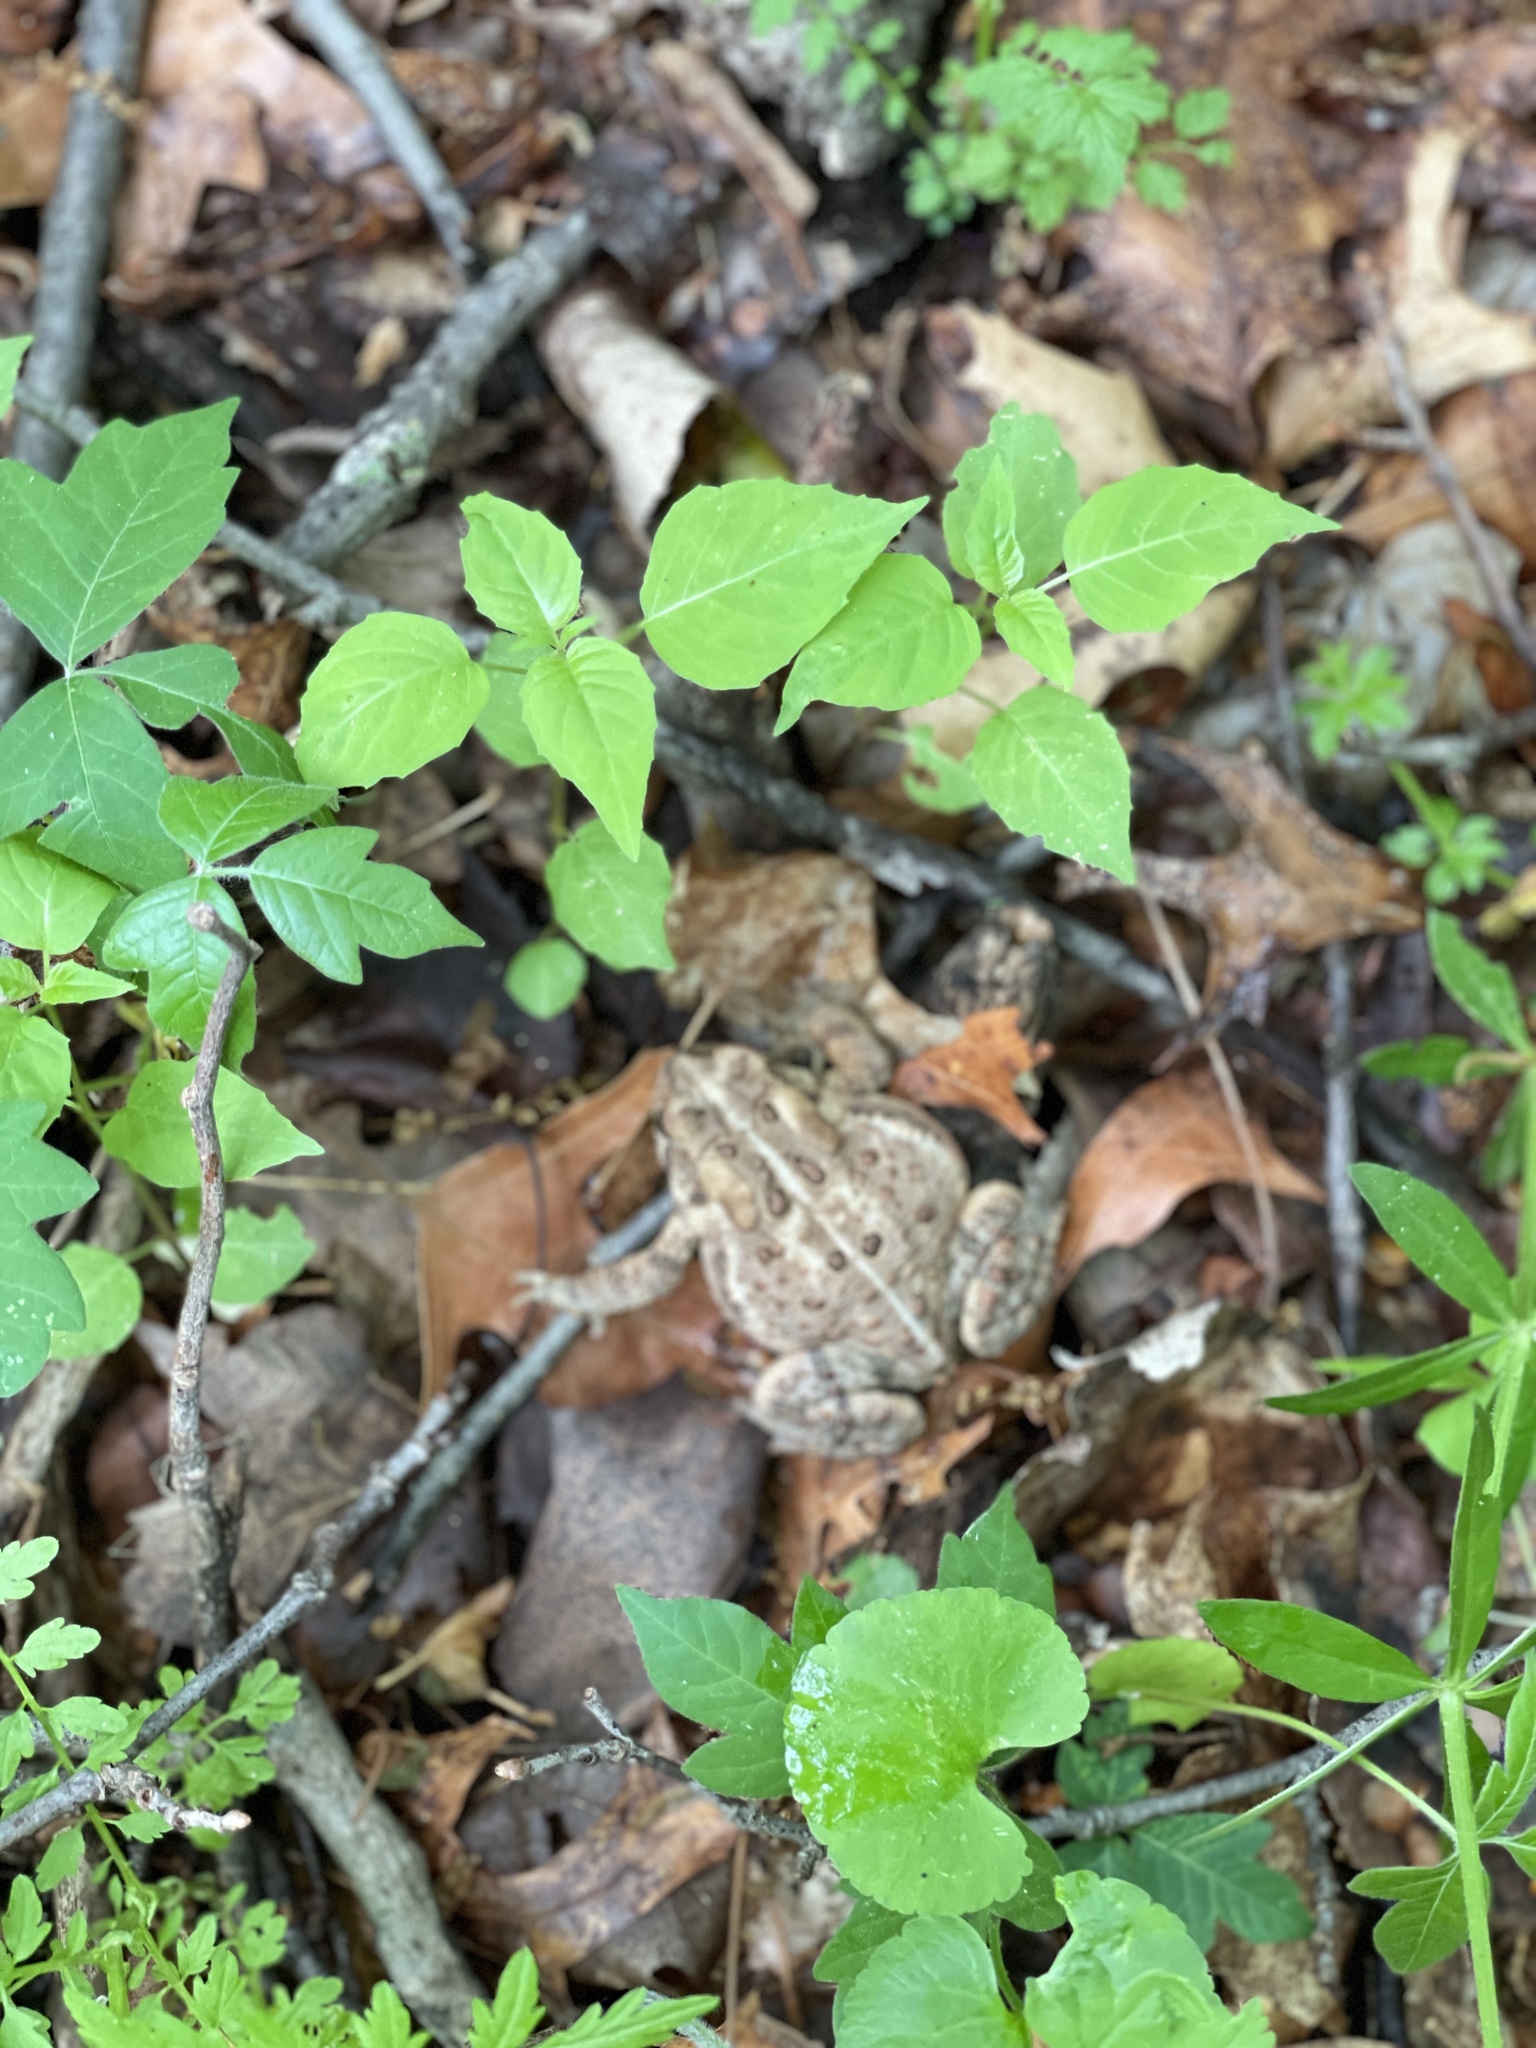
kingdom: Animalia
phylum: Chordata
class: Amphibia
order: Anura
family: Bufonidae
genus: Anaxyrus
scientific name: Anaxyrus americanus
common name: American toad
